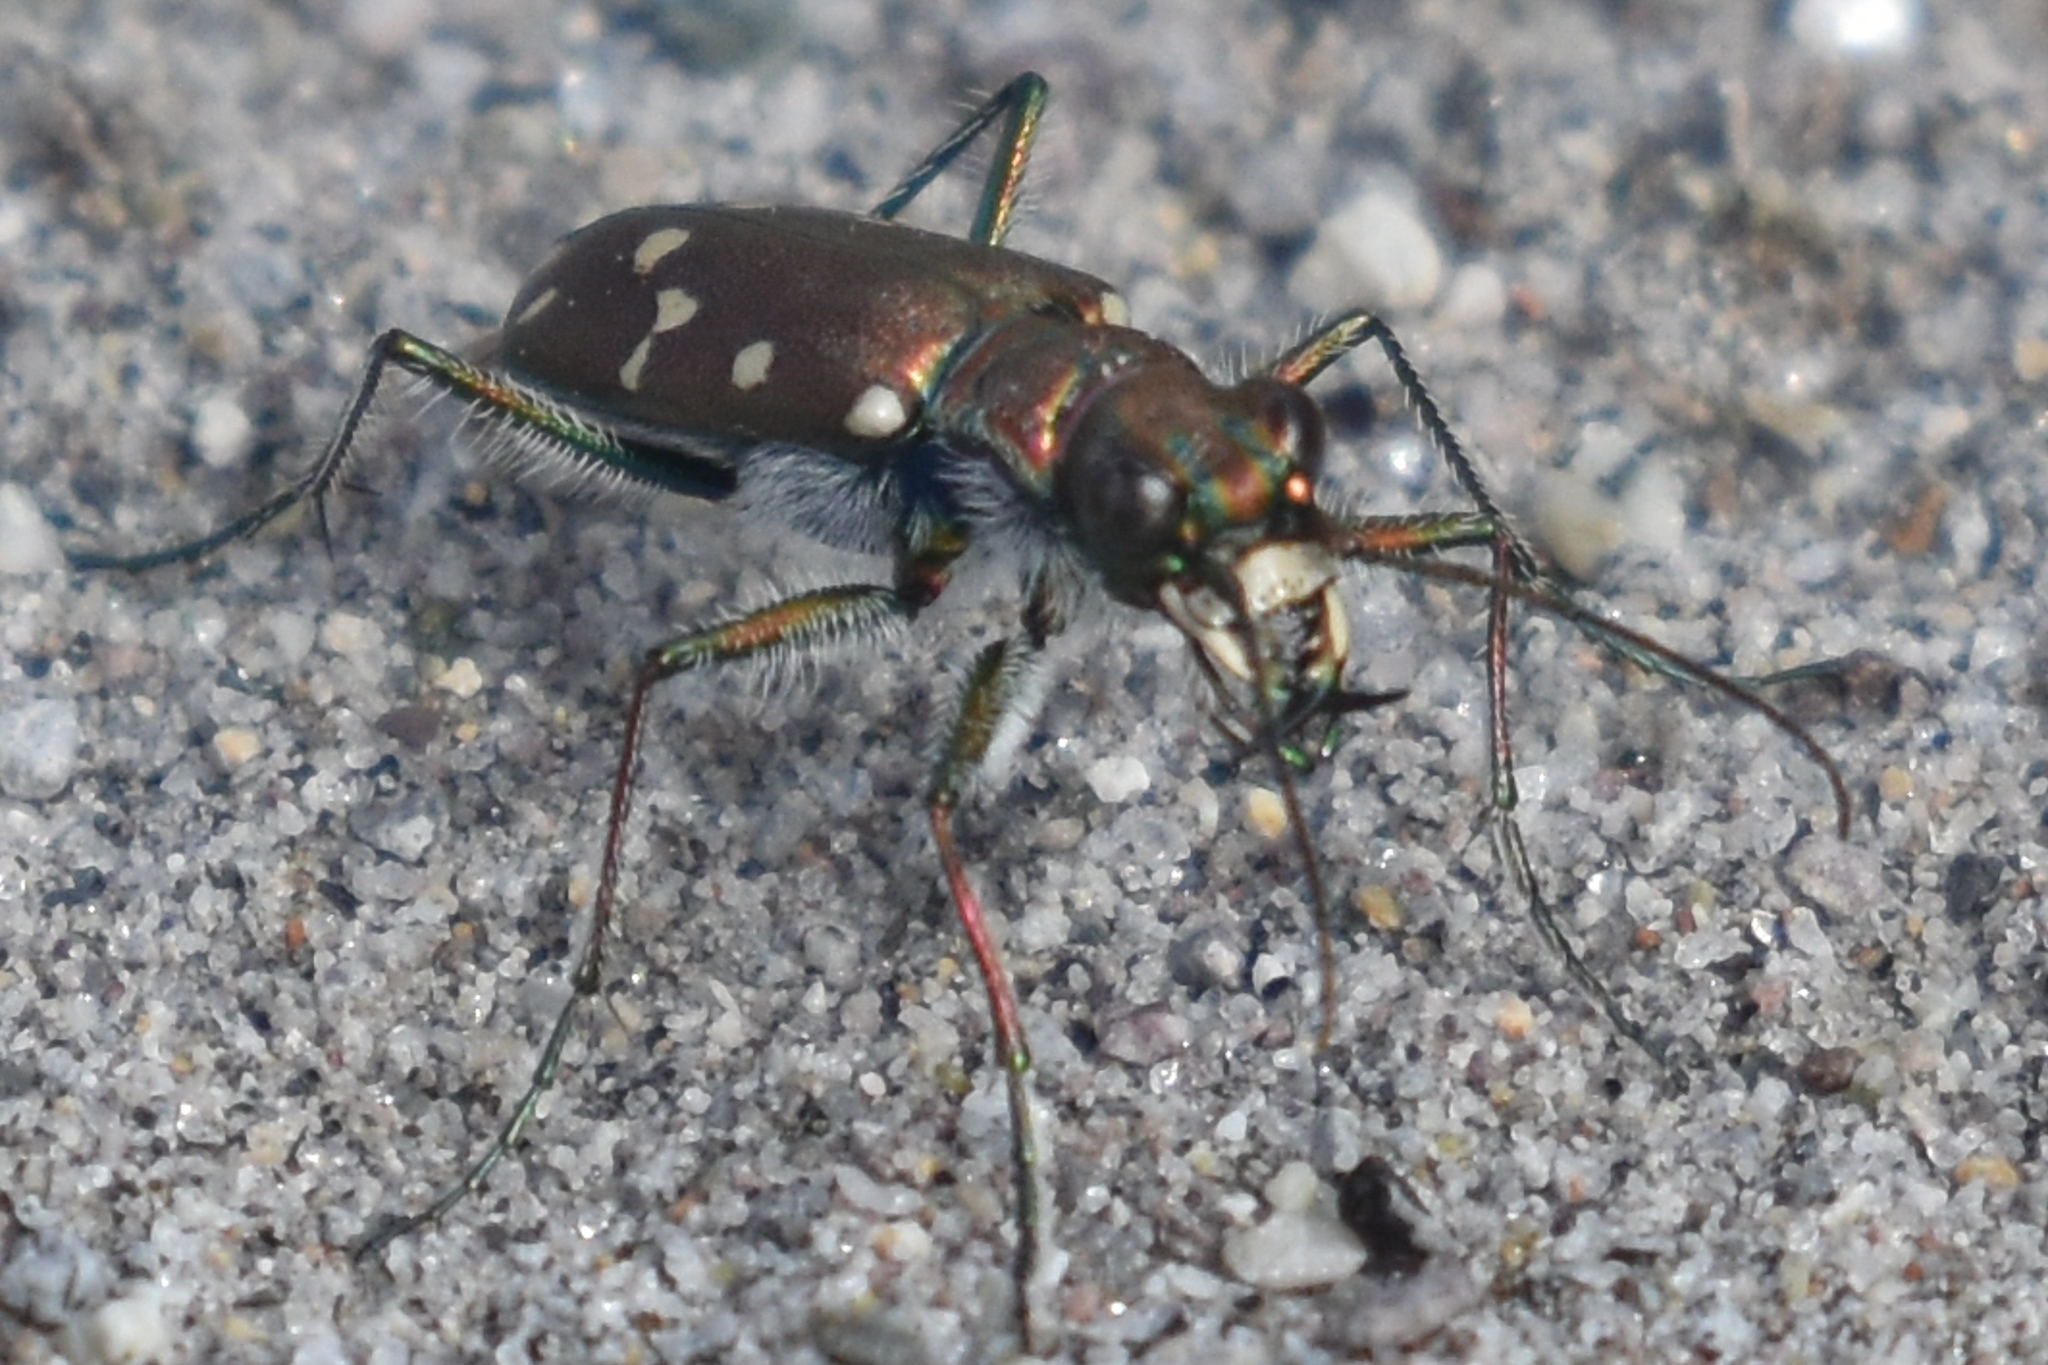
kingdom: Animalia
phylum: Arthropoda
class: Insecta
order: Coleoptera
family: Carabidae
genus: Cicindela
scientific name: Cicindela oregona
